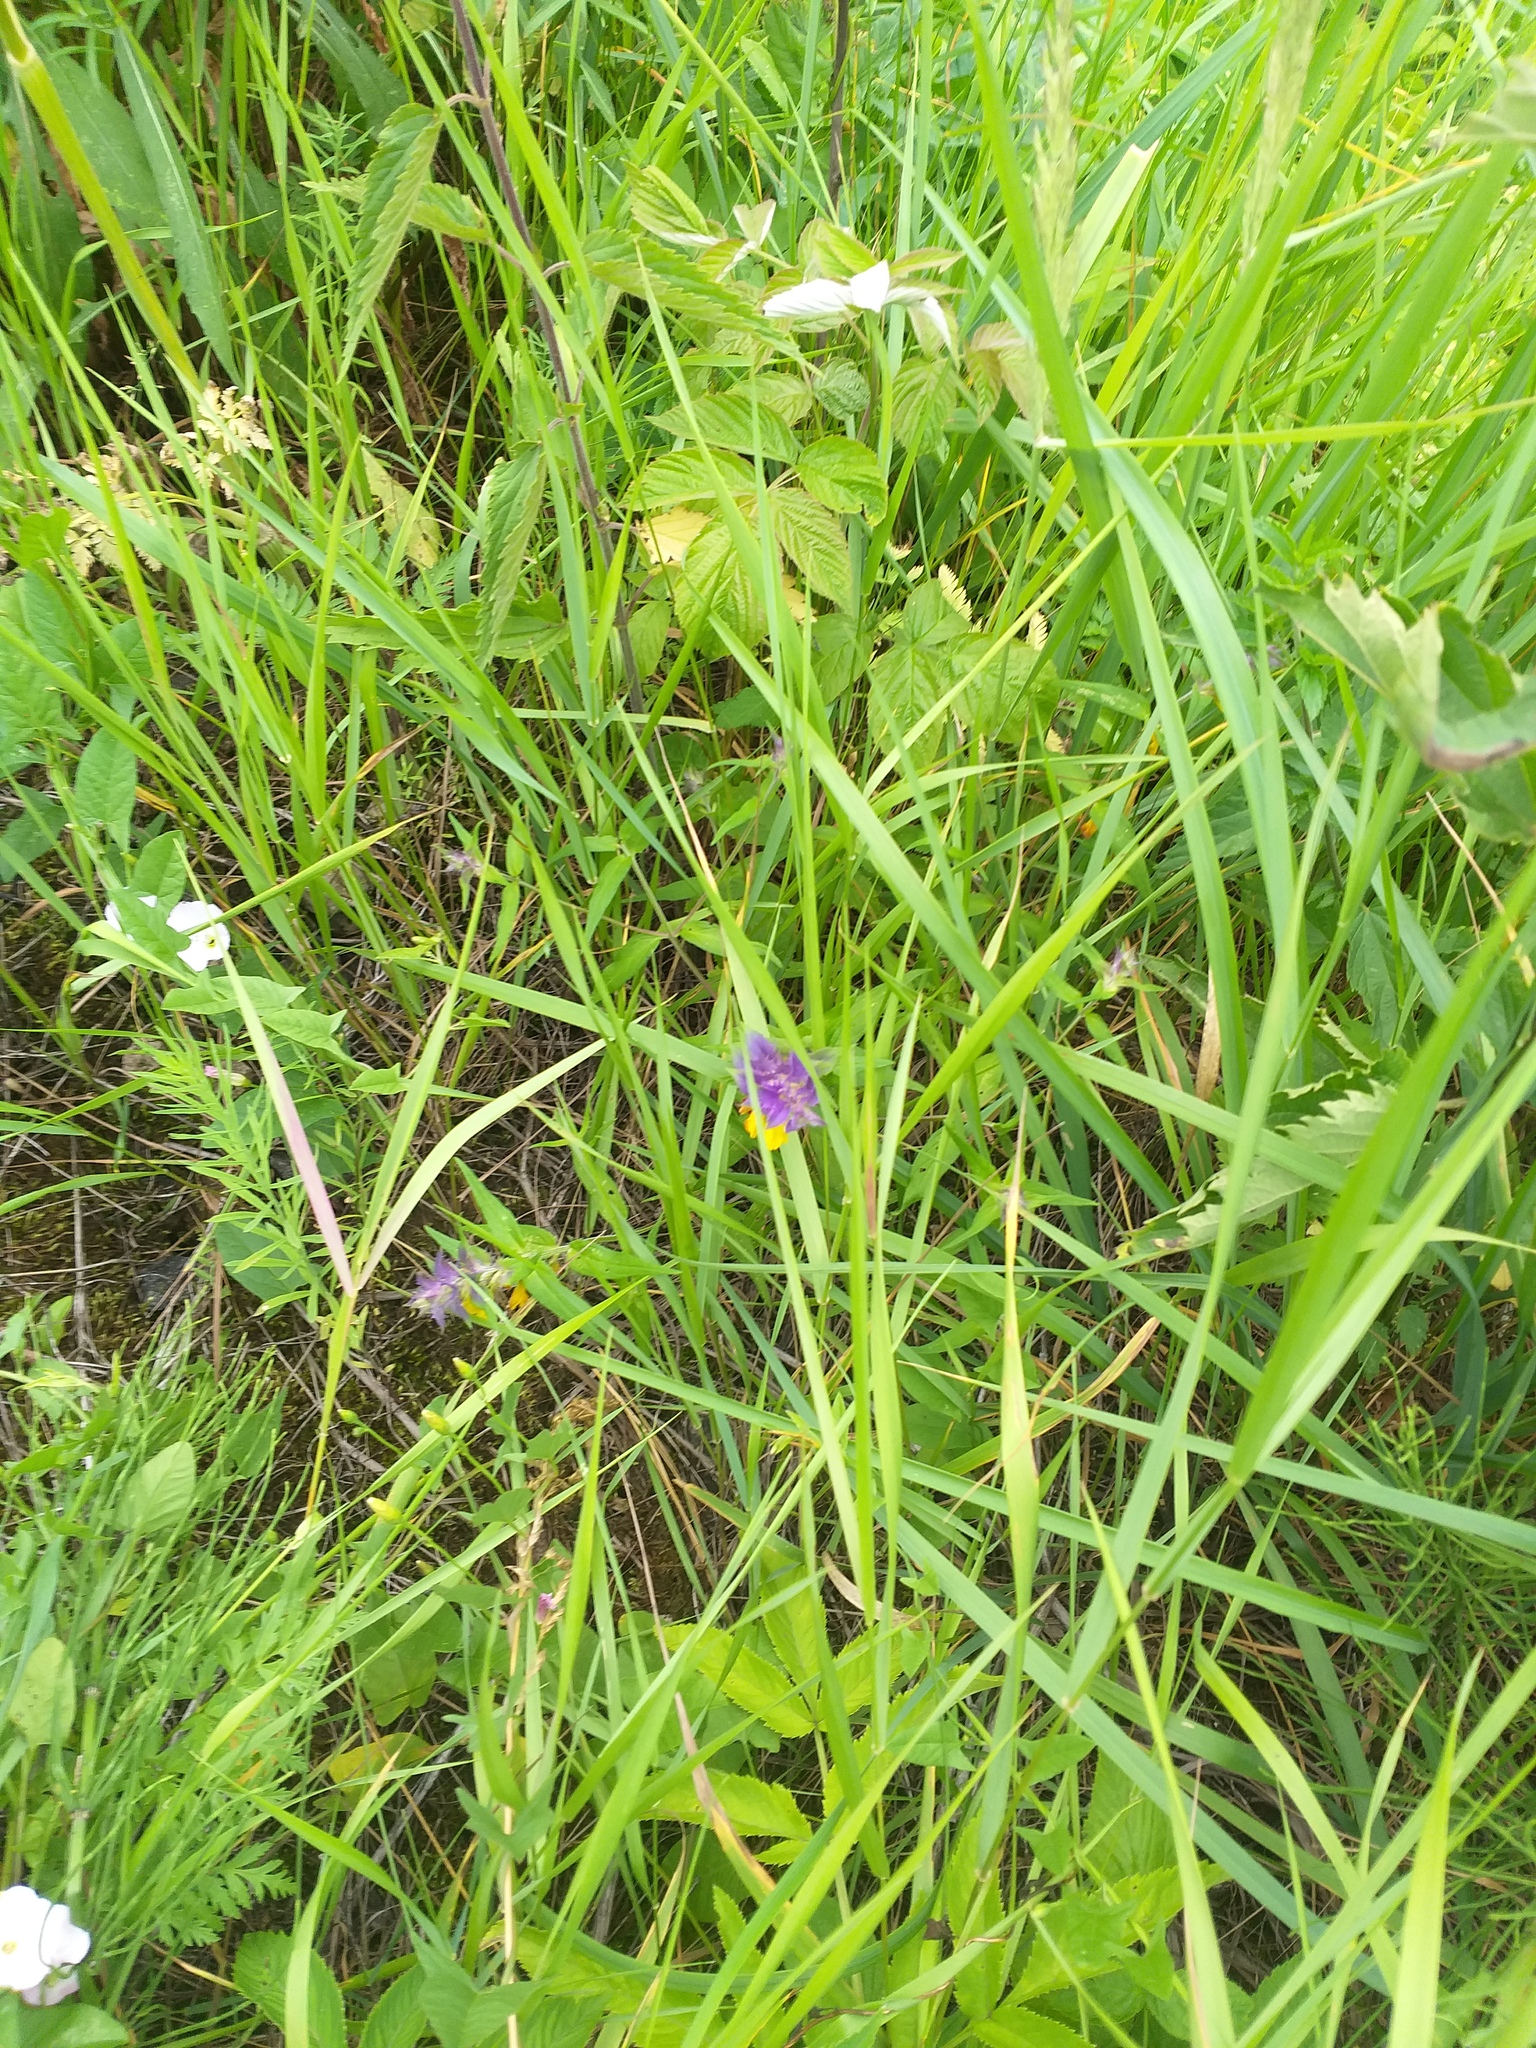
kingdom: Plantae
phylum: Tracheophyta
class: Magnoliopsida
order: Lamiales
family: Orobanchaceae
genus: Melampyrum
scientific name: Melampyrum nemorosum
